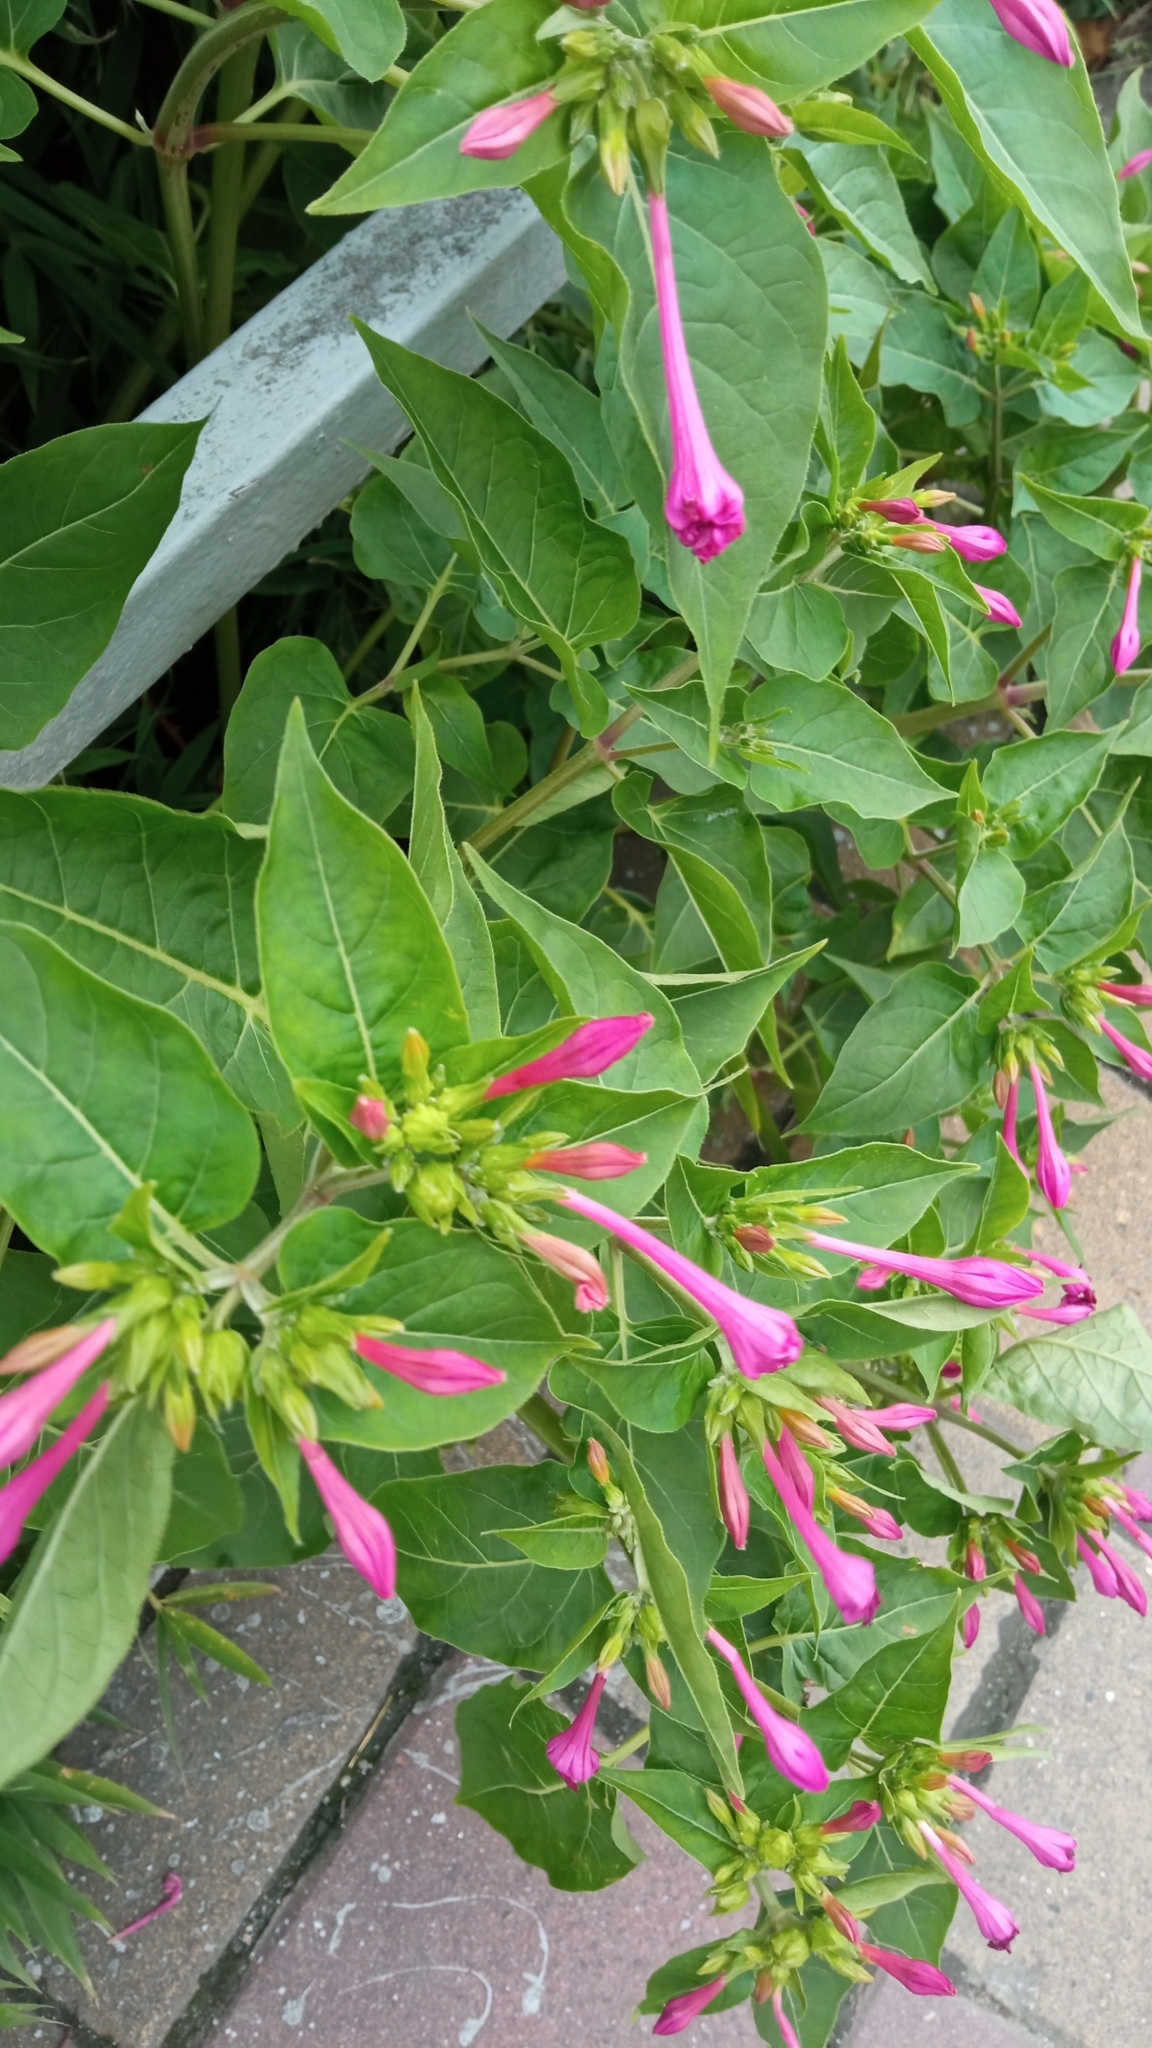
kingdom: Plantae
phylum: Tracheophyta
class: Magnoliopsida
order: Caryophyllales
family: Nyctaginaceae
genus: Mirabilis
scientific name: Mirabilis jalapa
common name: Marvel-of-peru
